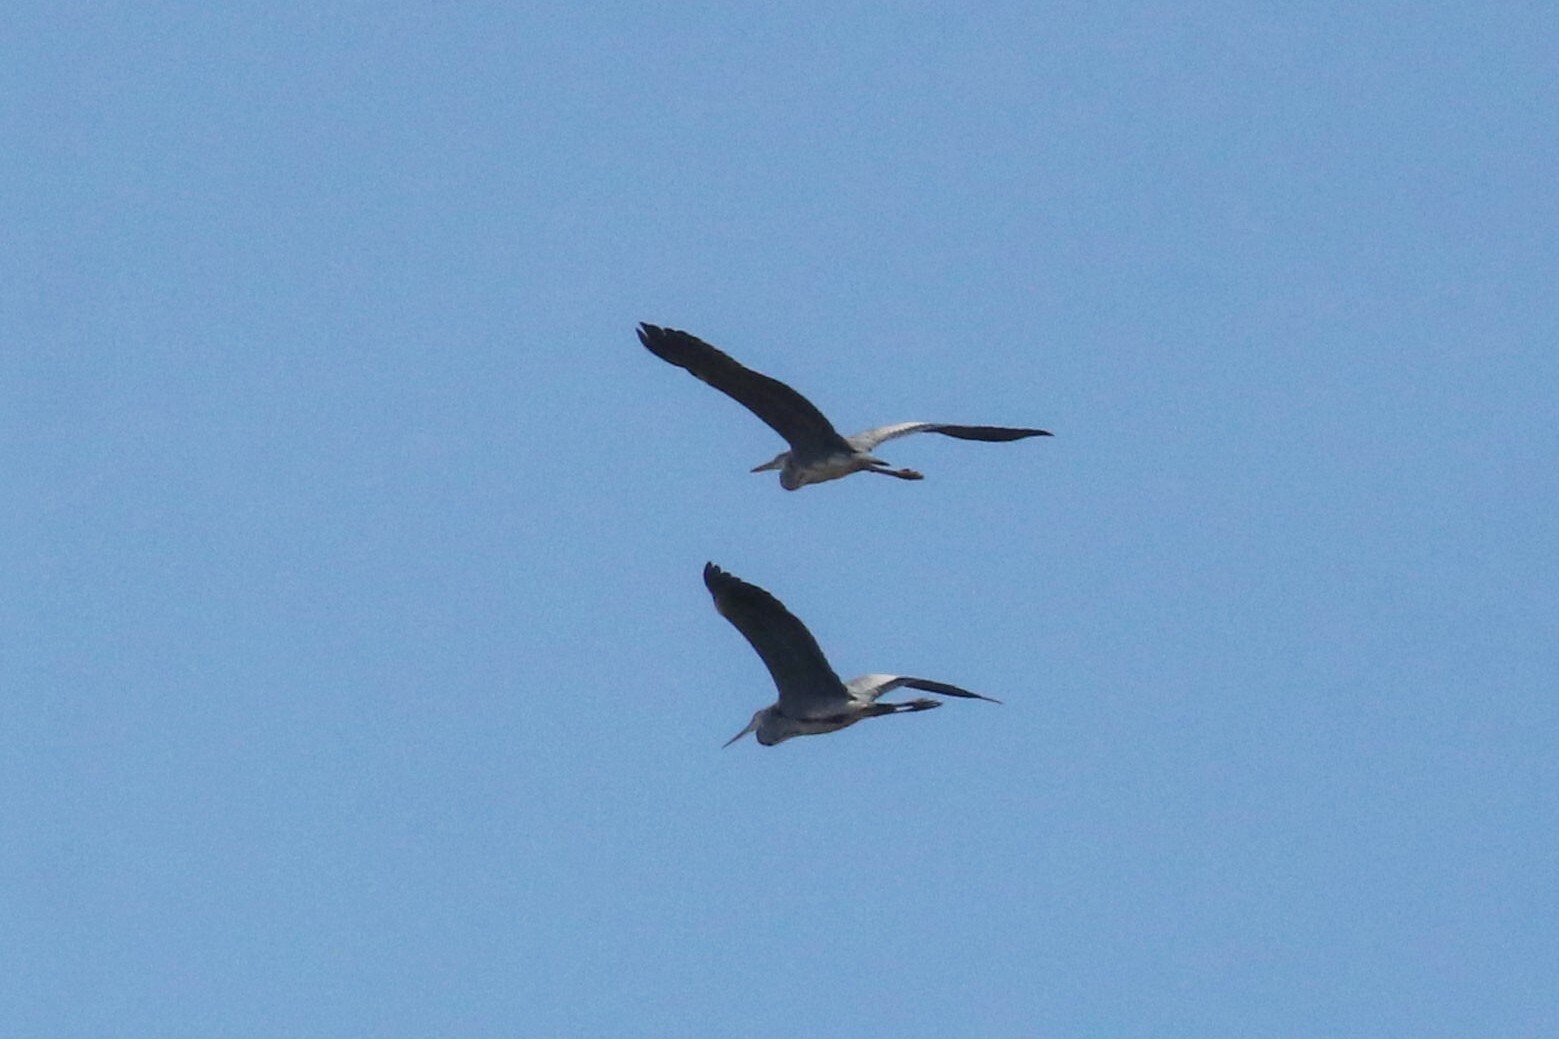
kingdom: Animalia
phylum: Chordata
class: Aves
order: Pelecaniformes
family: Ardeidae
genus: Ardea
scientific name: Ardea cinerea
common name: Grey heron
